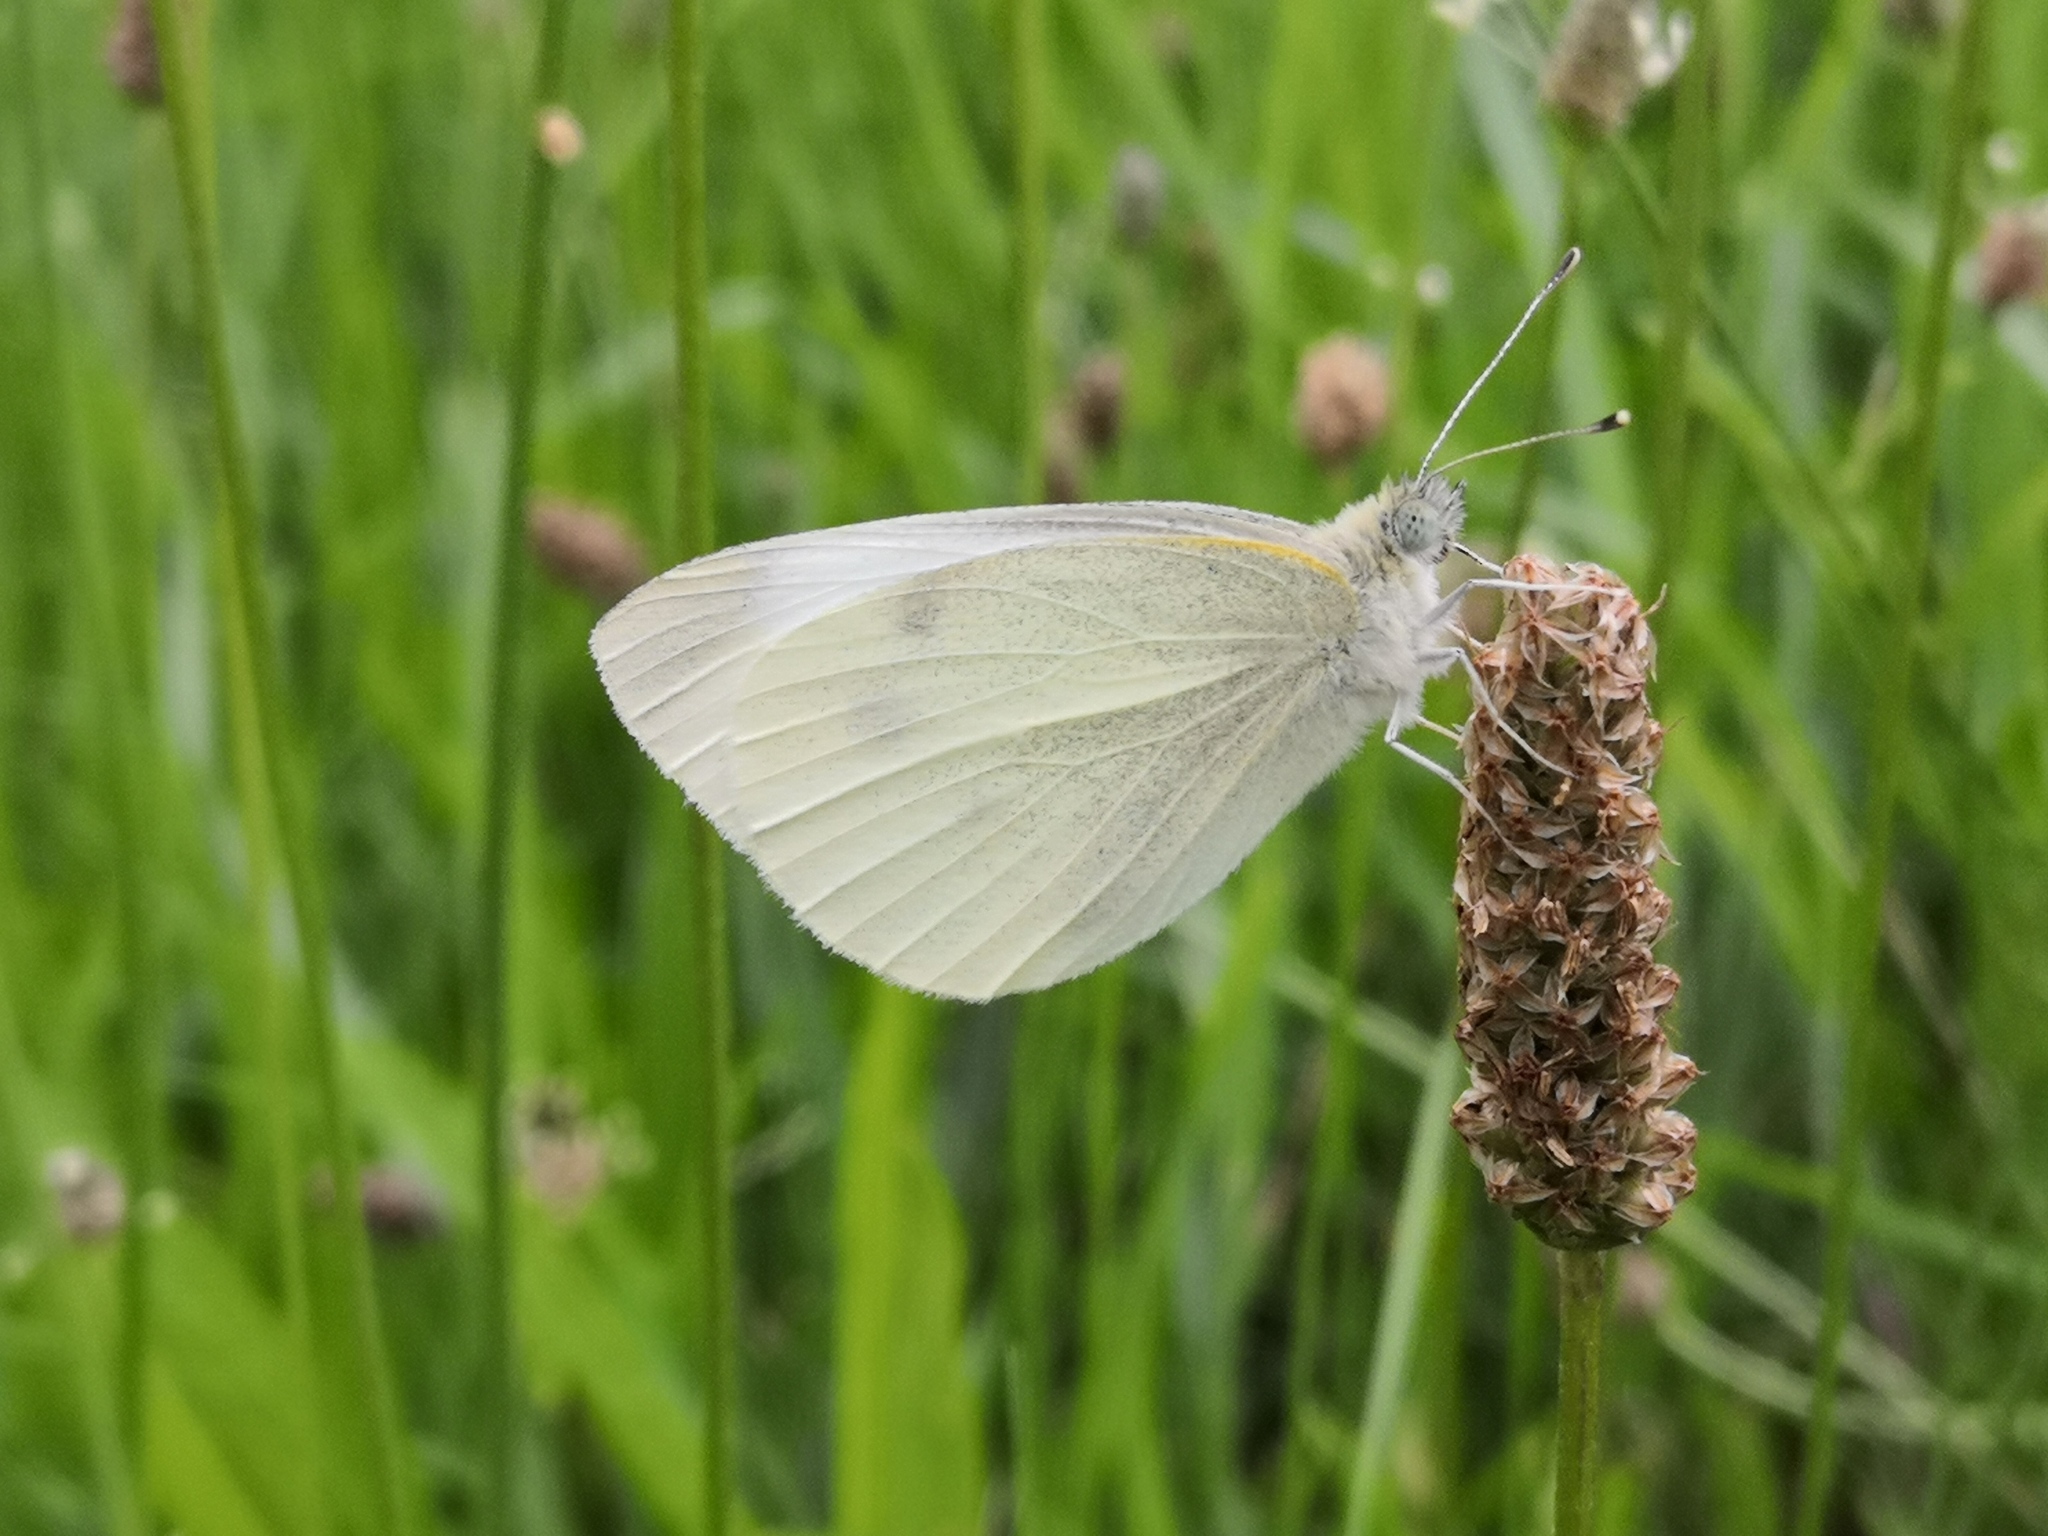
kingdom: Animalia
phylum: Arthropoda
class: Insecta
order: Lepidoptera
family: Pieridae
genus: Pieris
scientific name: Pieris rapae
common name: Small white
